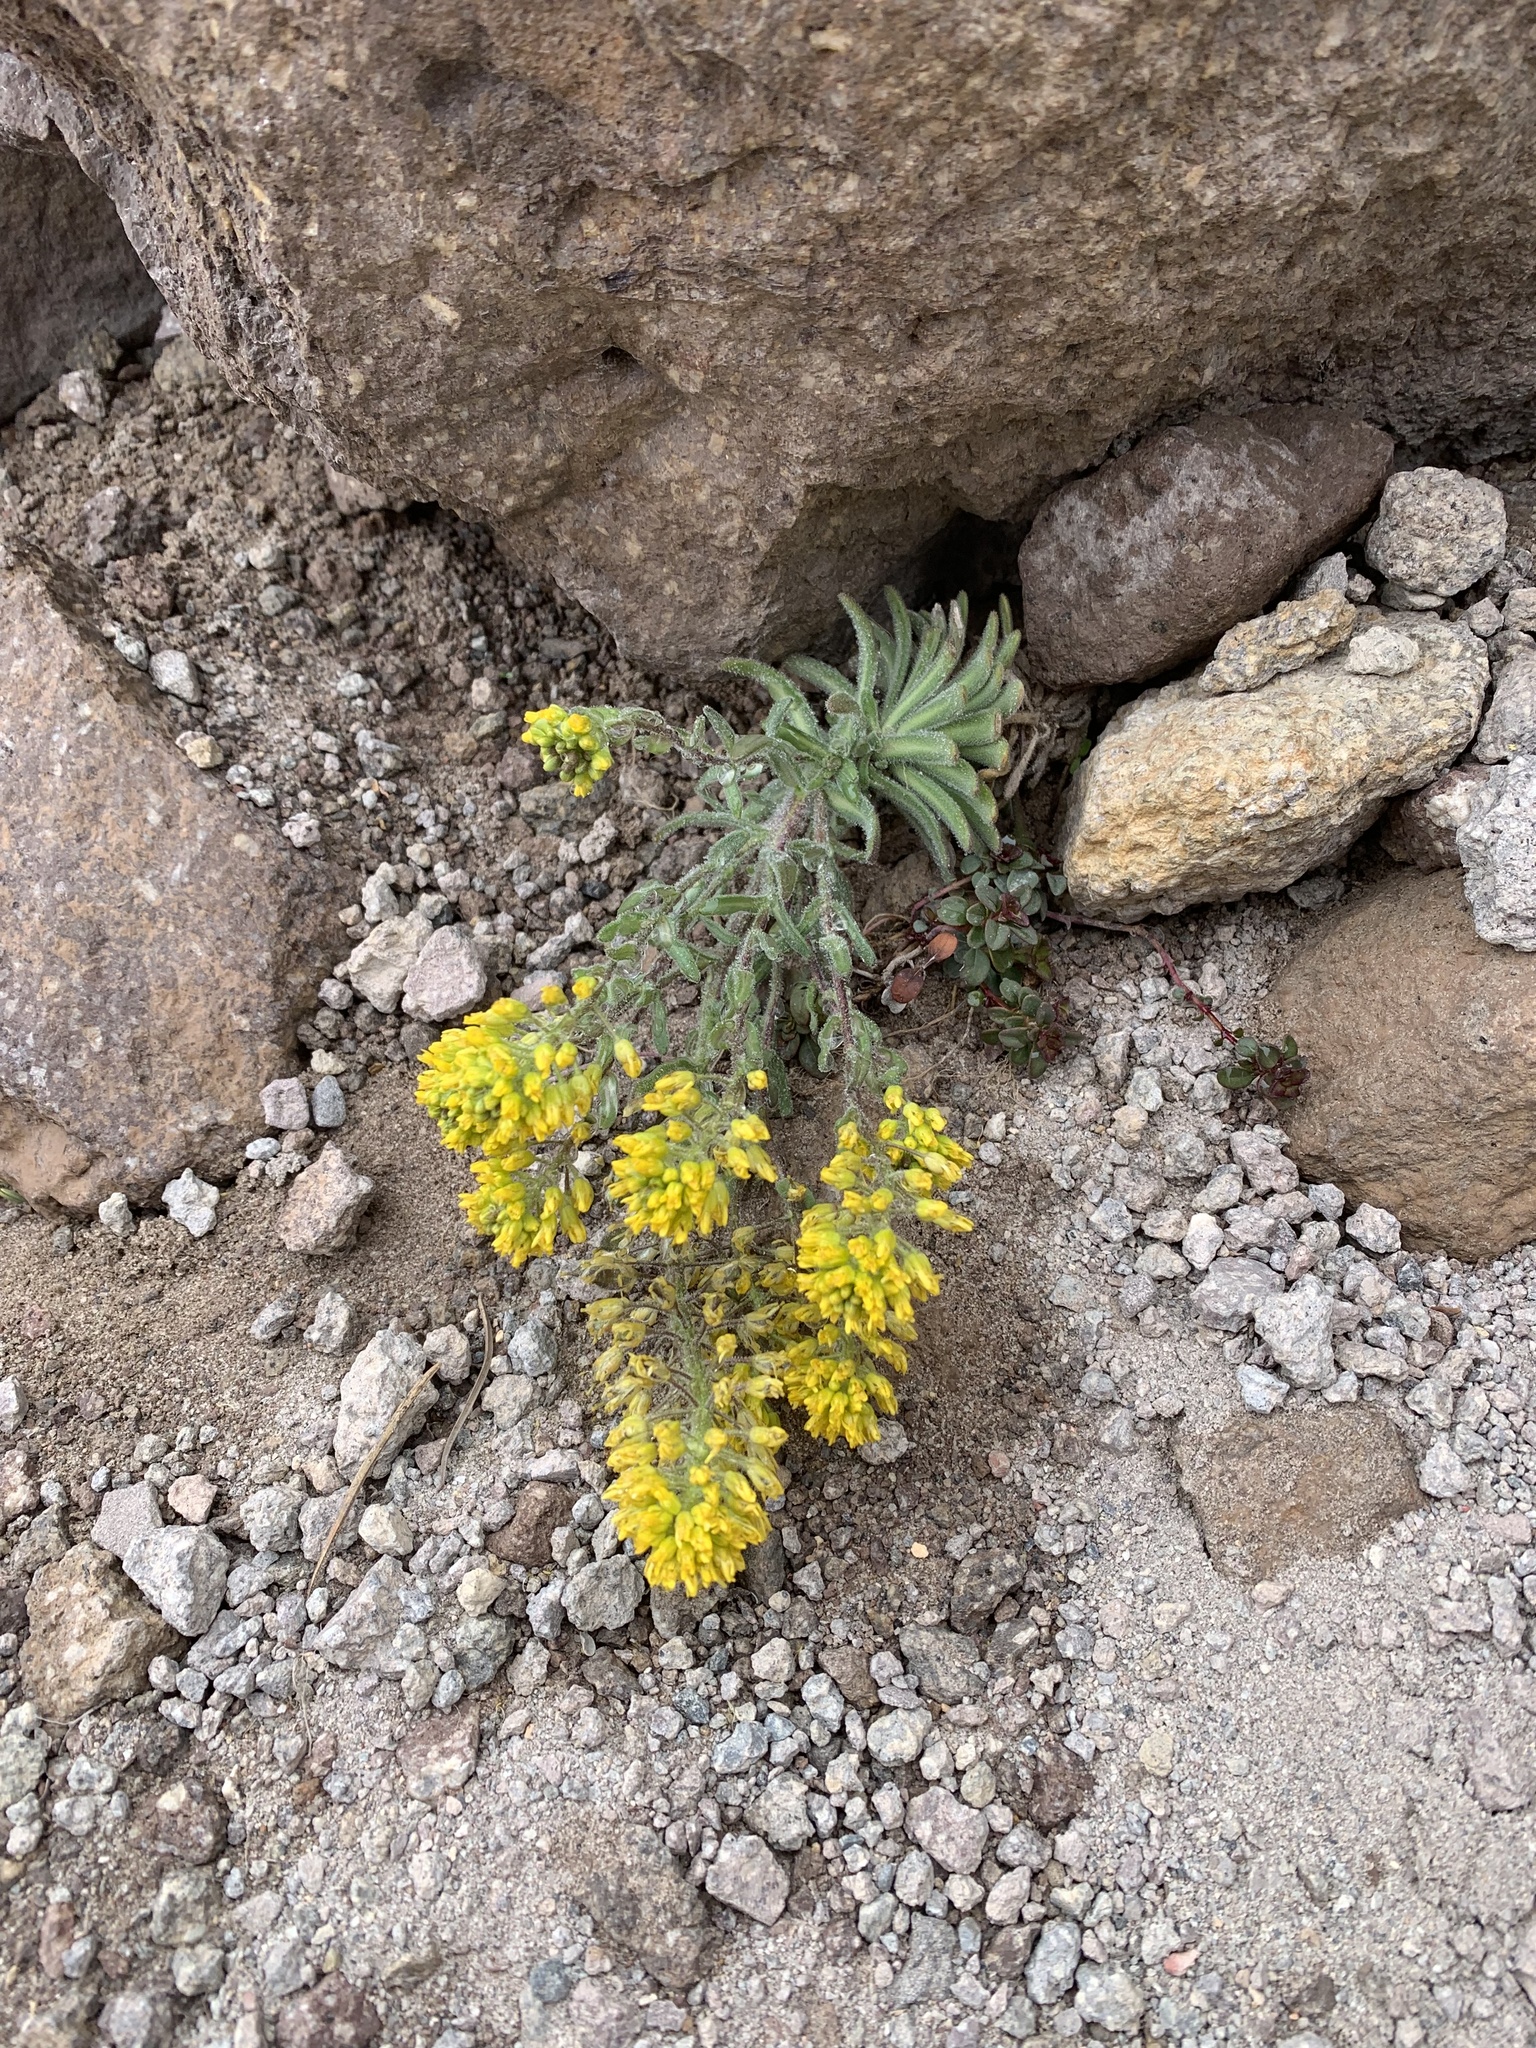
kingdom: Plantae
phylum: Tracheophyta
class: Magnoliopsida
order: Brassicales
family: Brassicaceae
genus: Draba
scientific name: Draba aureola
